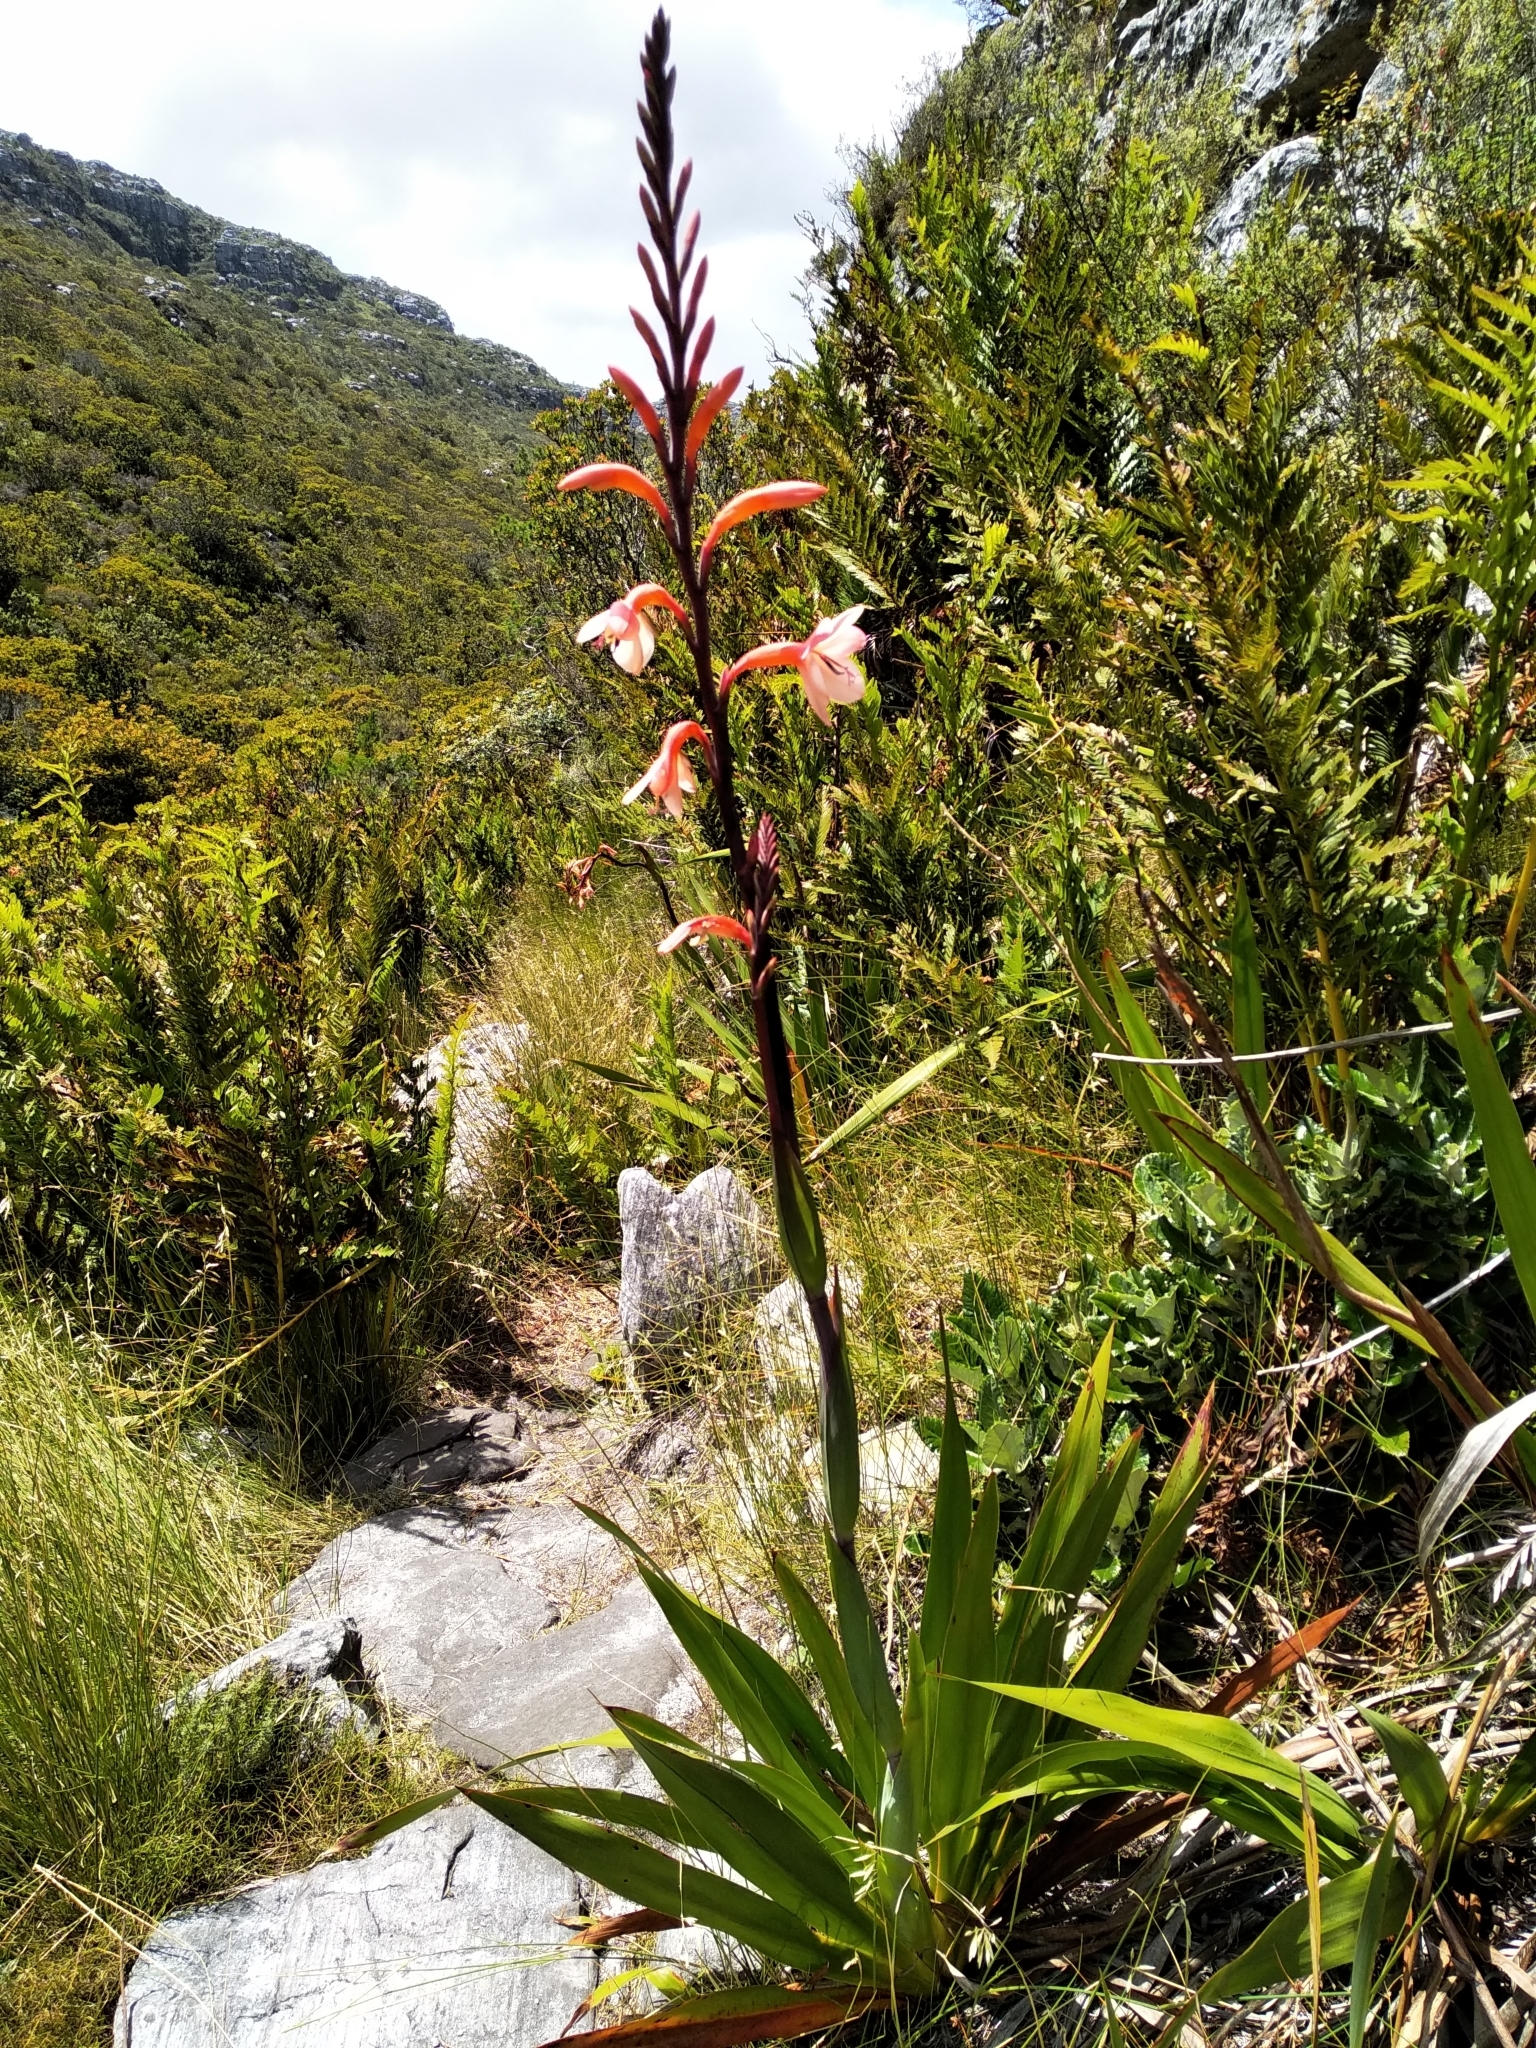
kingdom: Plantae
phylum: Tracheophyta
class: Liliopsida
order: Asparagales
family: Iridaceae
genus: Watsonia
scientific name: Watsonia tabularis
